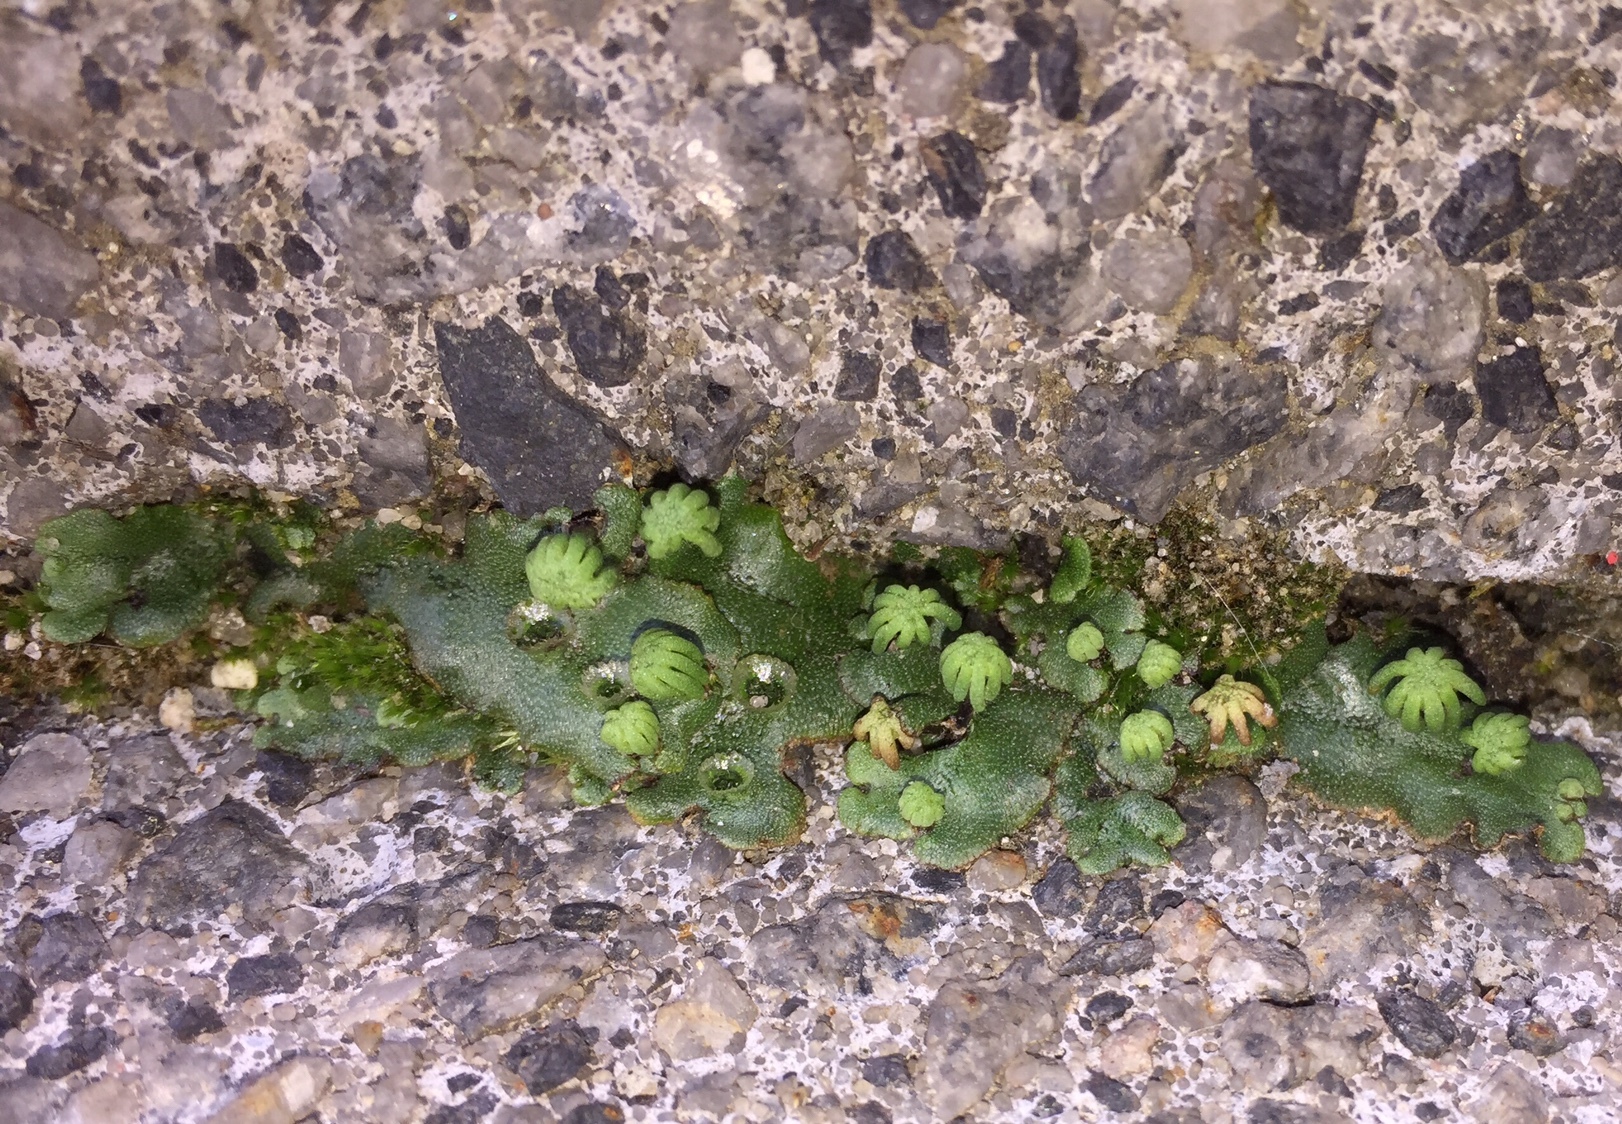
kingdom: Plantae
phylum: Marchantiophyta
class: Marchantiopsida
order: Marchantiales
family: Marchantiaceae
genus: Marchantia
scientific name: Marchantia polymorpha
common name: Common liverwort
